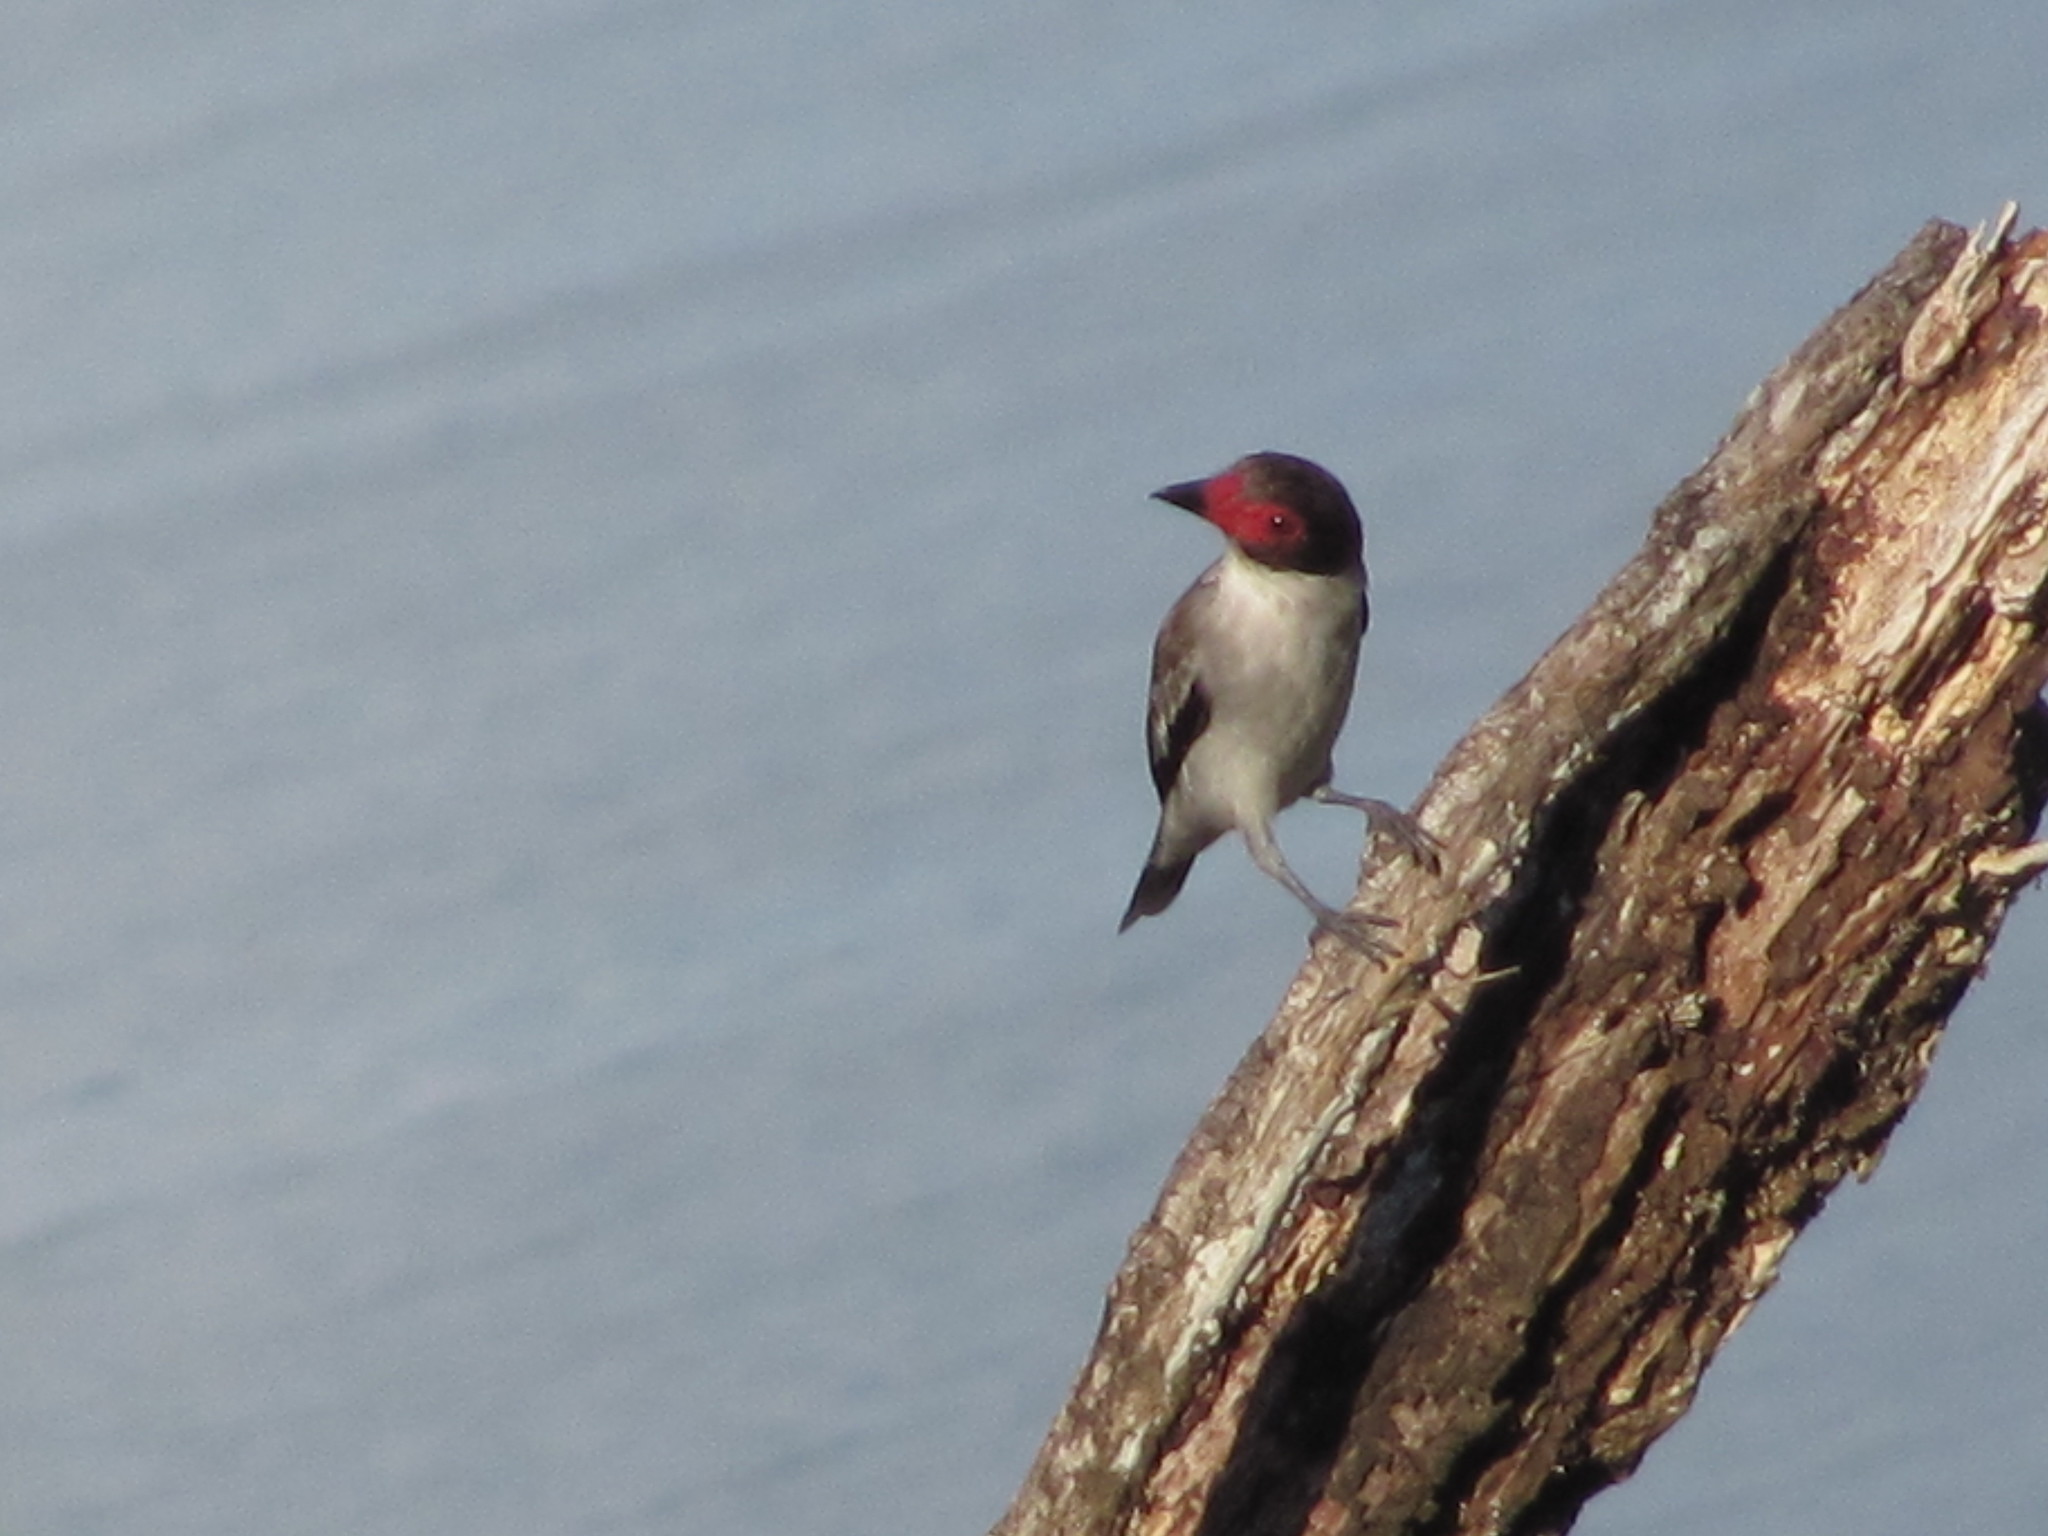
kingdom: Animalia
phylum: Chordata
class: Aves
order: Passeriformes
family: Cotingidae
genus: Tityra
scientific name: Tityra semifasciata
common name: Masked tityra
